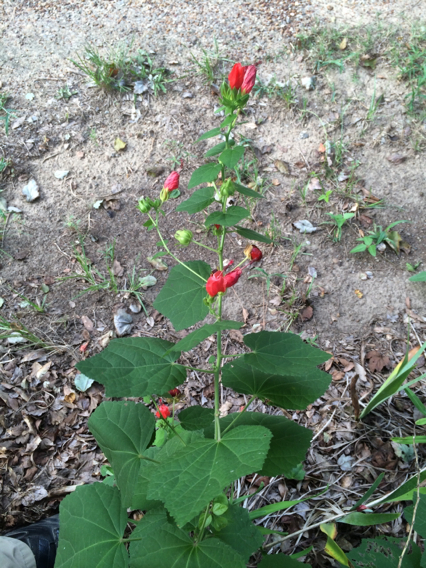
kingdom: Plantae
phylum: Tracheophyta
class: Magnoliopsida
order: Malvales
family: Malvaceae
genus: Malvaviscus
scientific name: Malvaviscus arboreus
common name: Wax mallow
